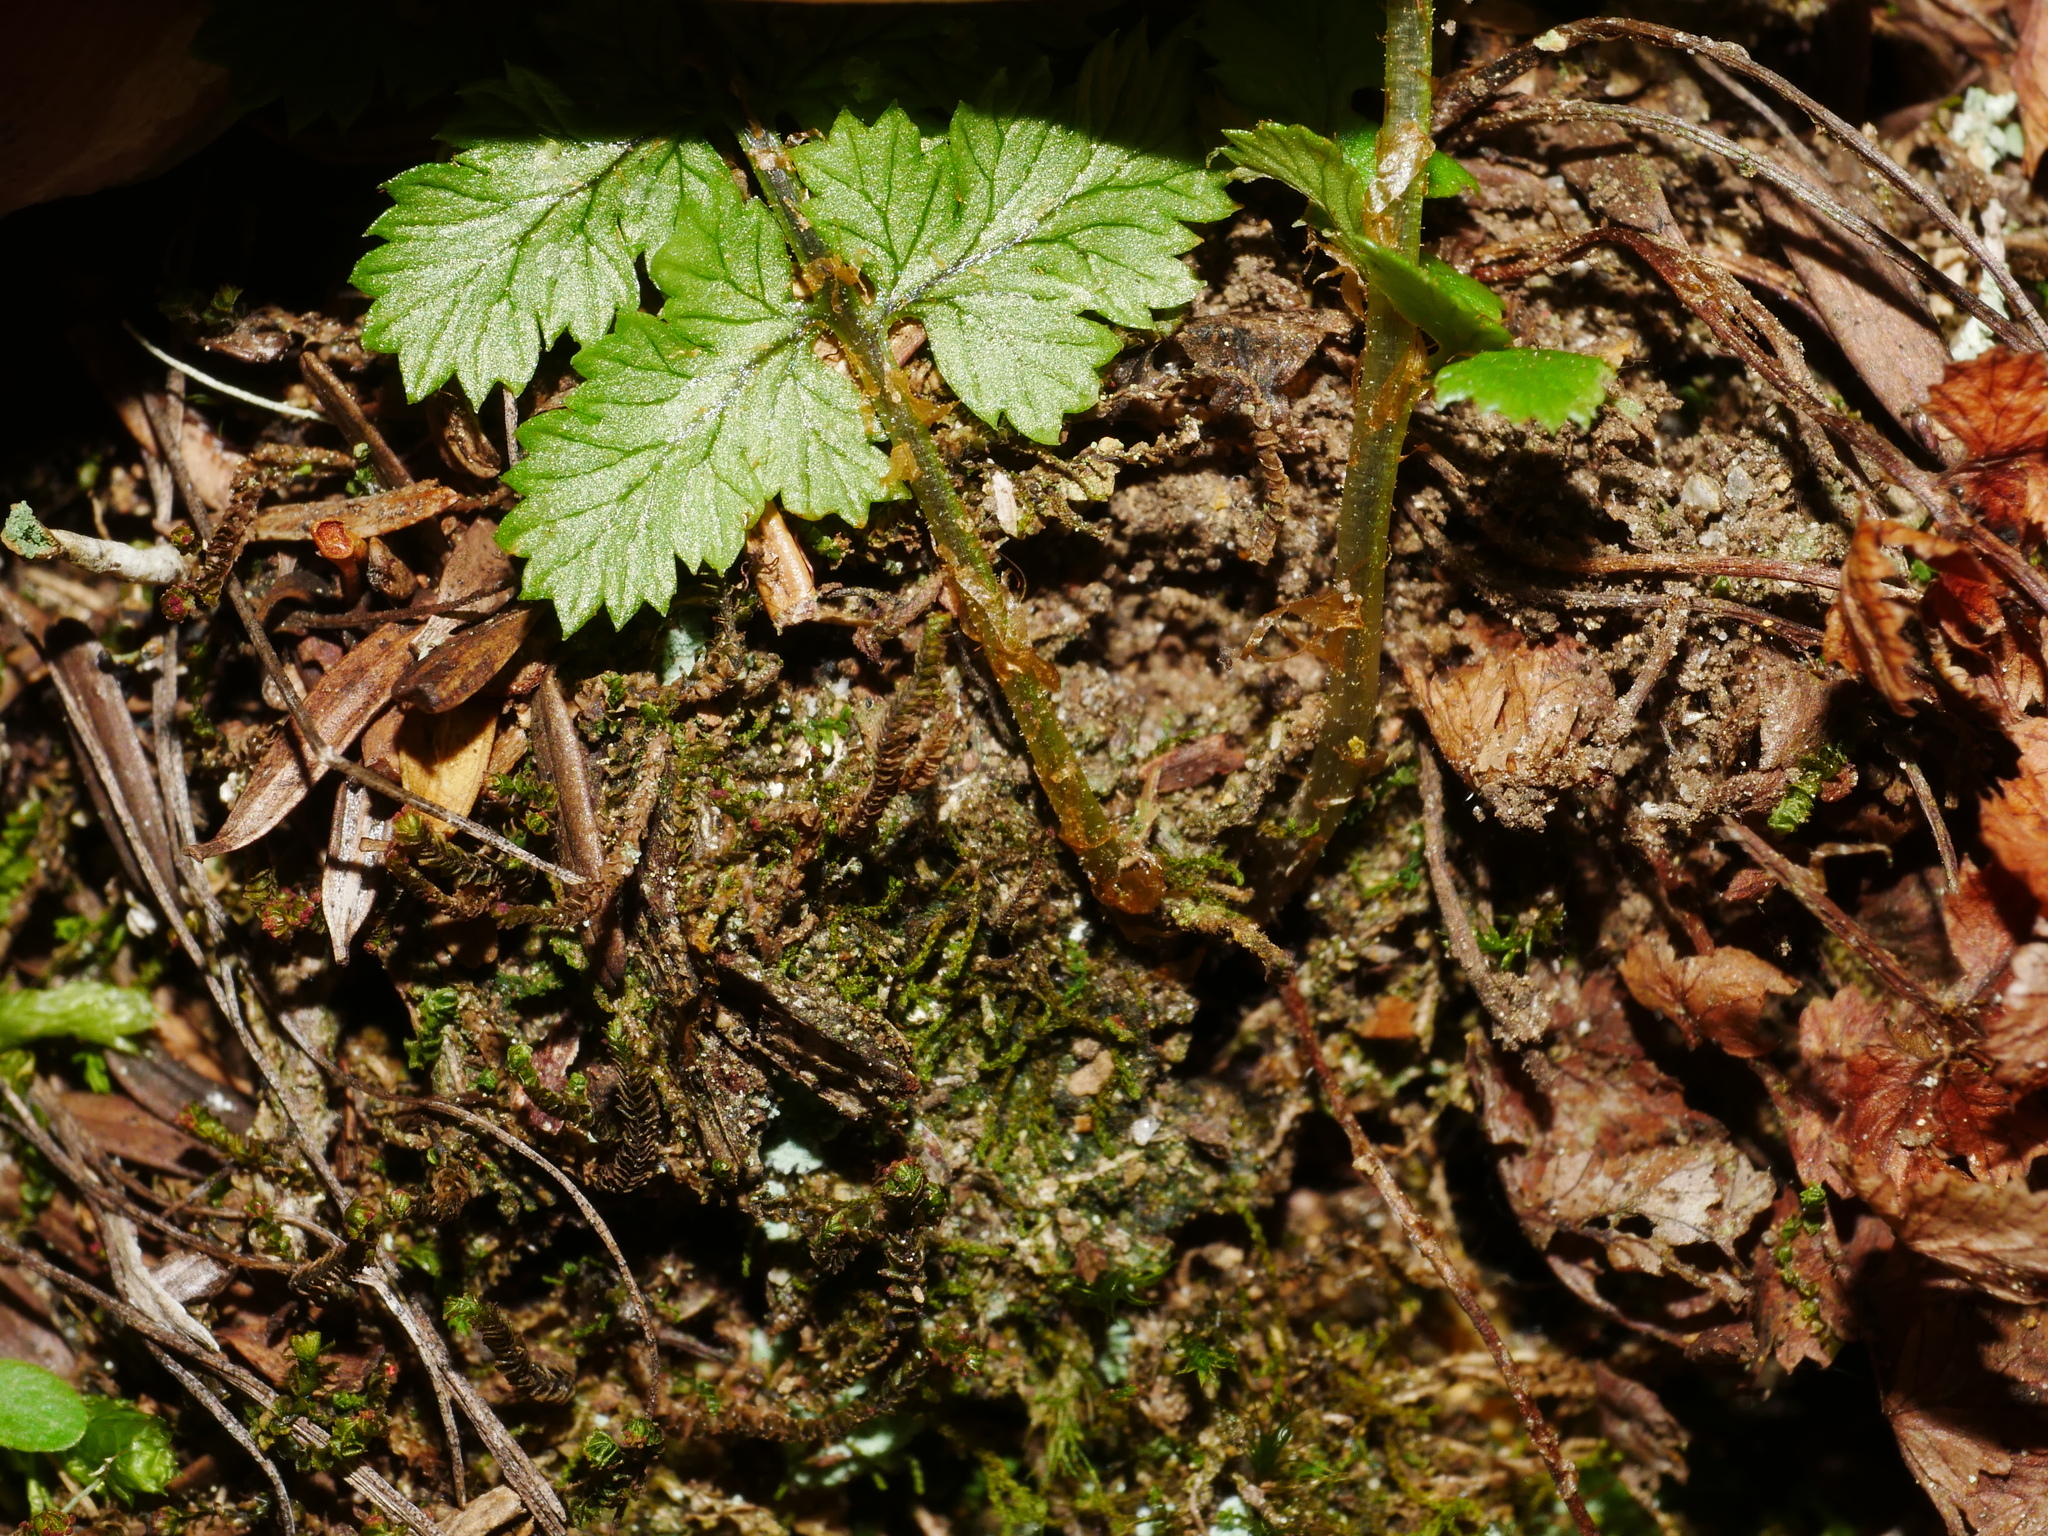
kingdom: Plantae
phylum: Tracheophyta
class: Polypodiopsida
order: Polypodiales
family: Dryopteridaceae
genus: Dryopteris
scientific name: Dryopteris acutodentata
